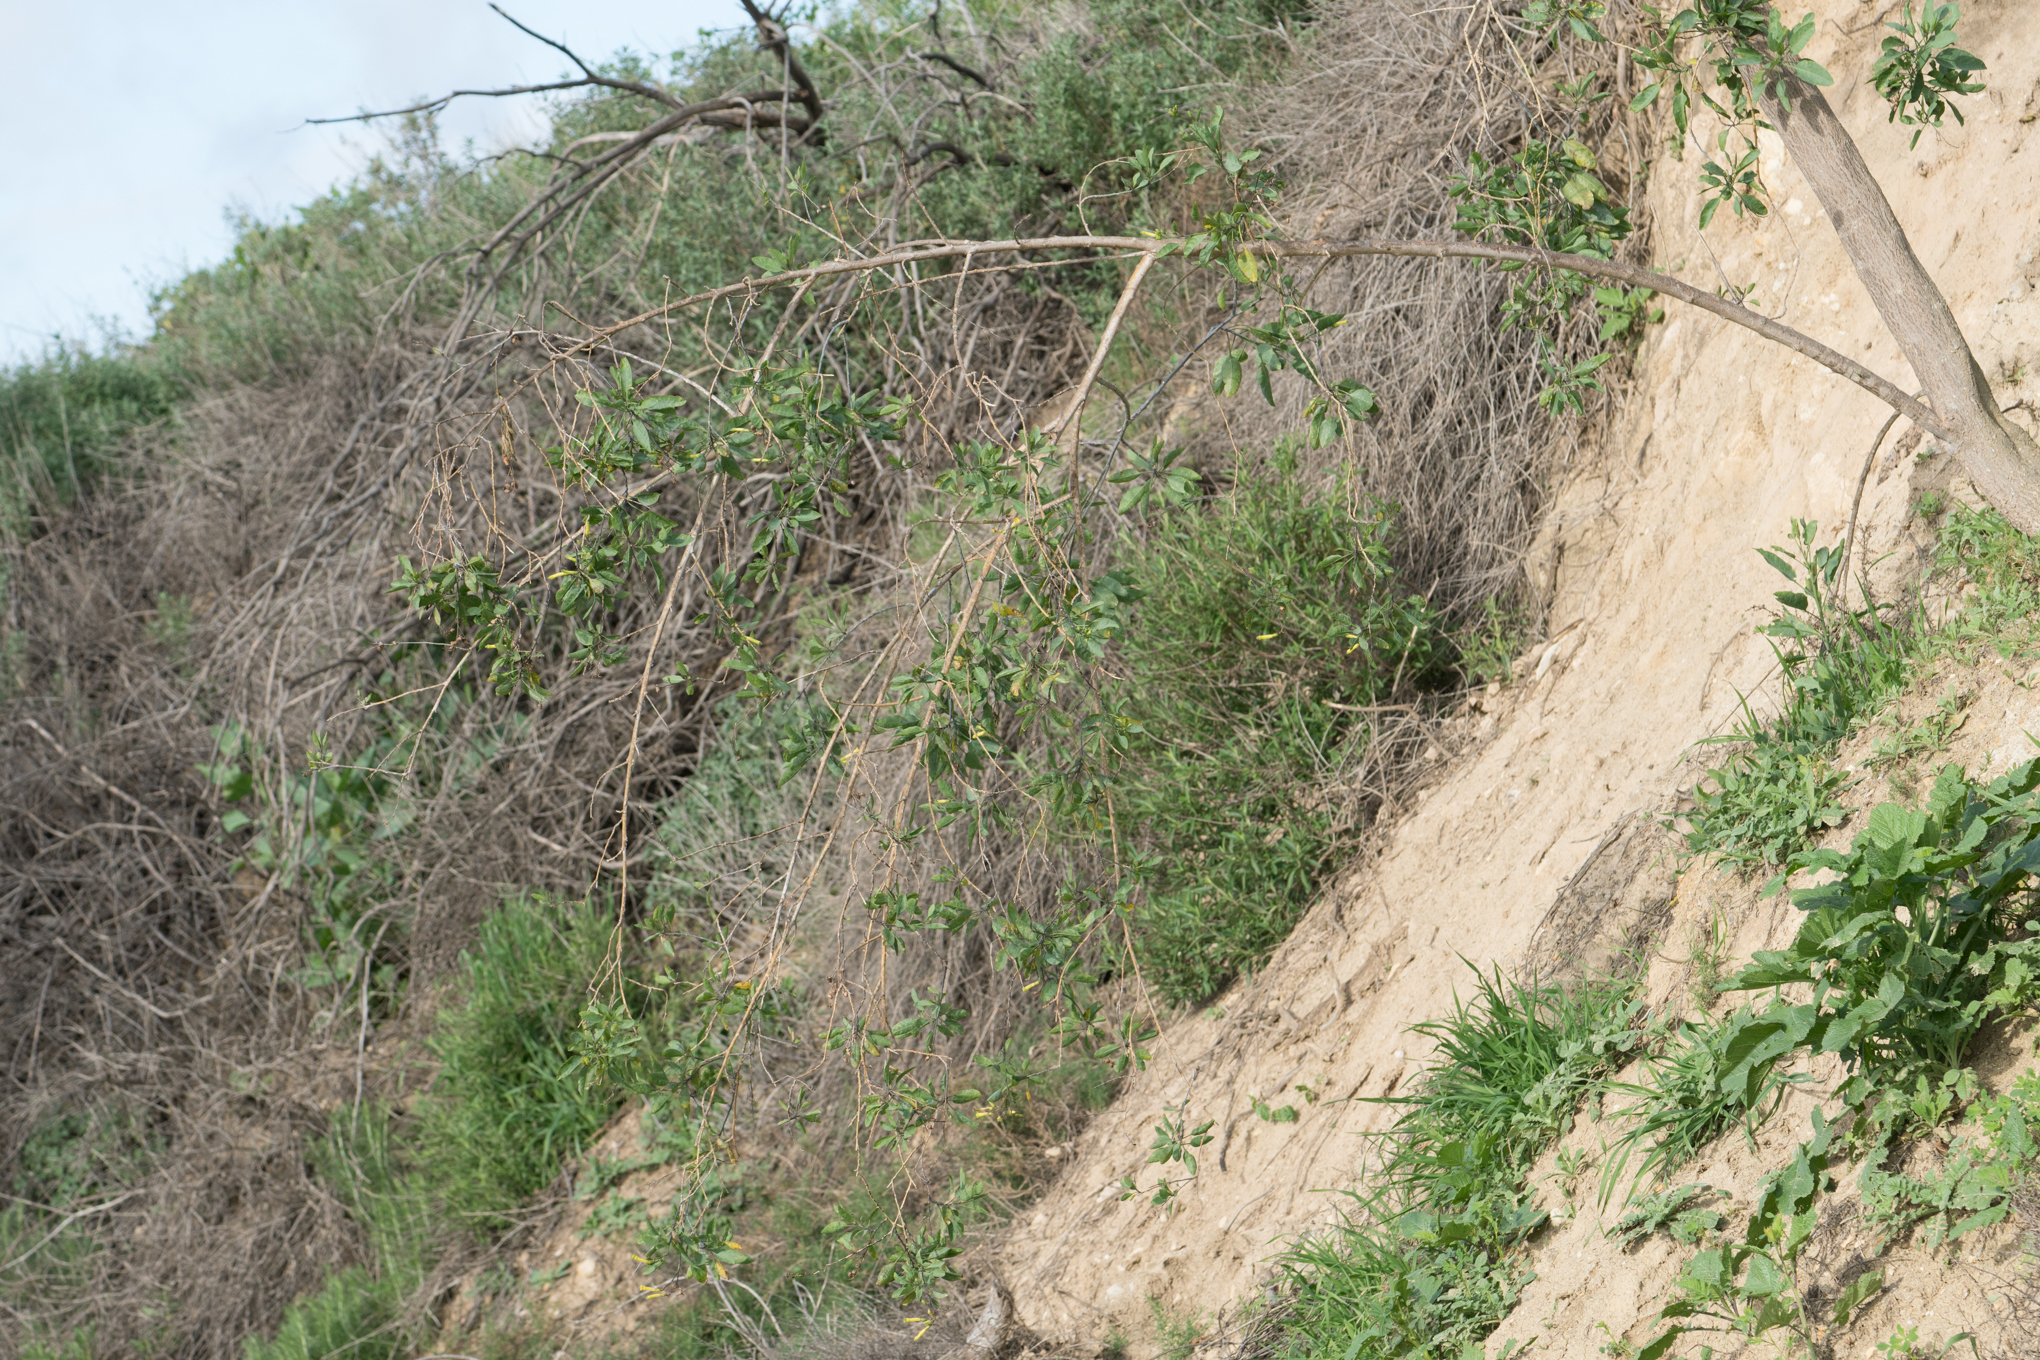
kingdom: Plantae
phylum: Tracheophyta
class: Magnoliopsida
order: Solanales
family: Solanaceae
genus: Nicotiana
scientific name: Nicotiana glauca
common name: Tree tobacco
